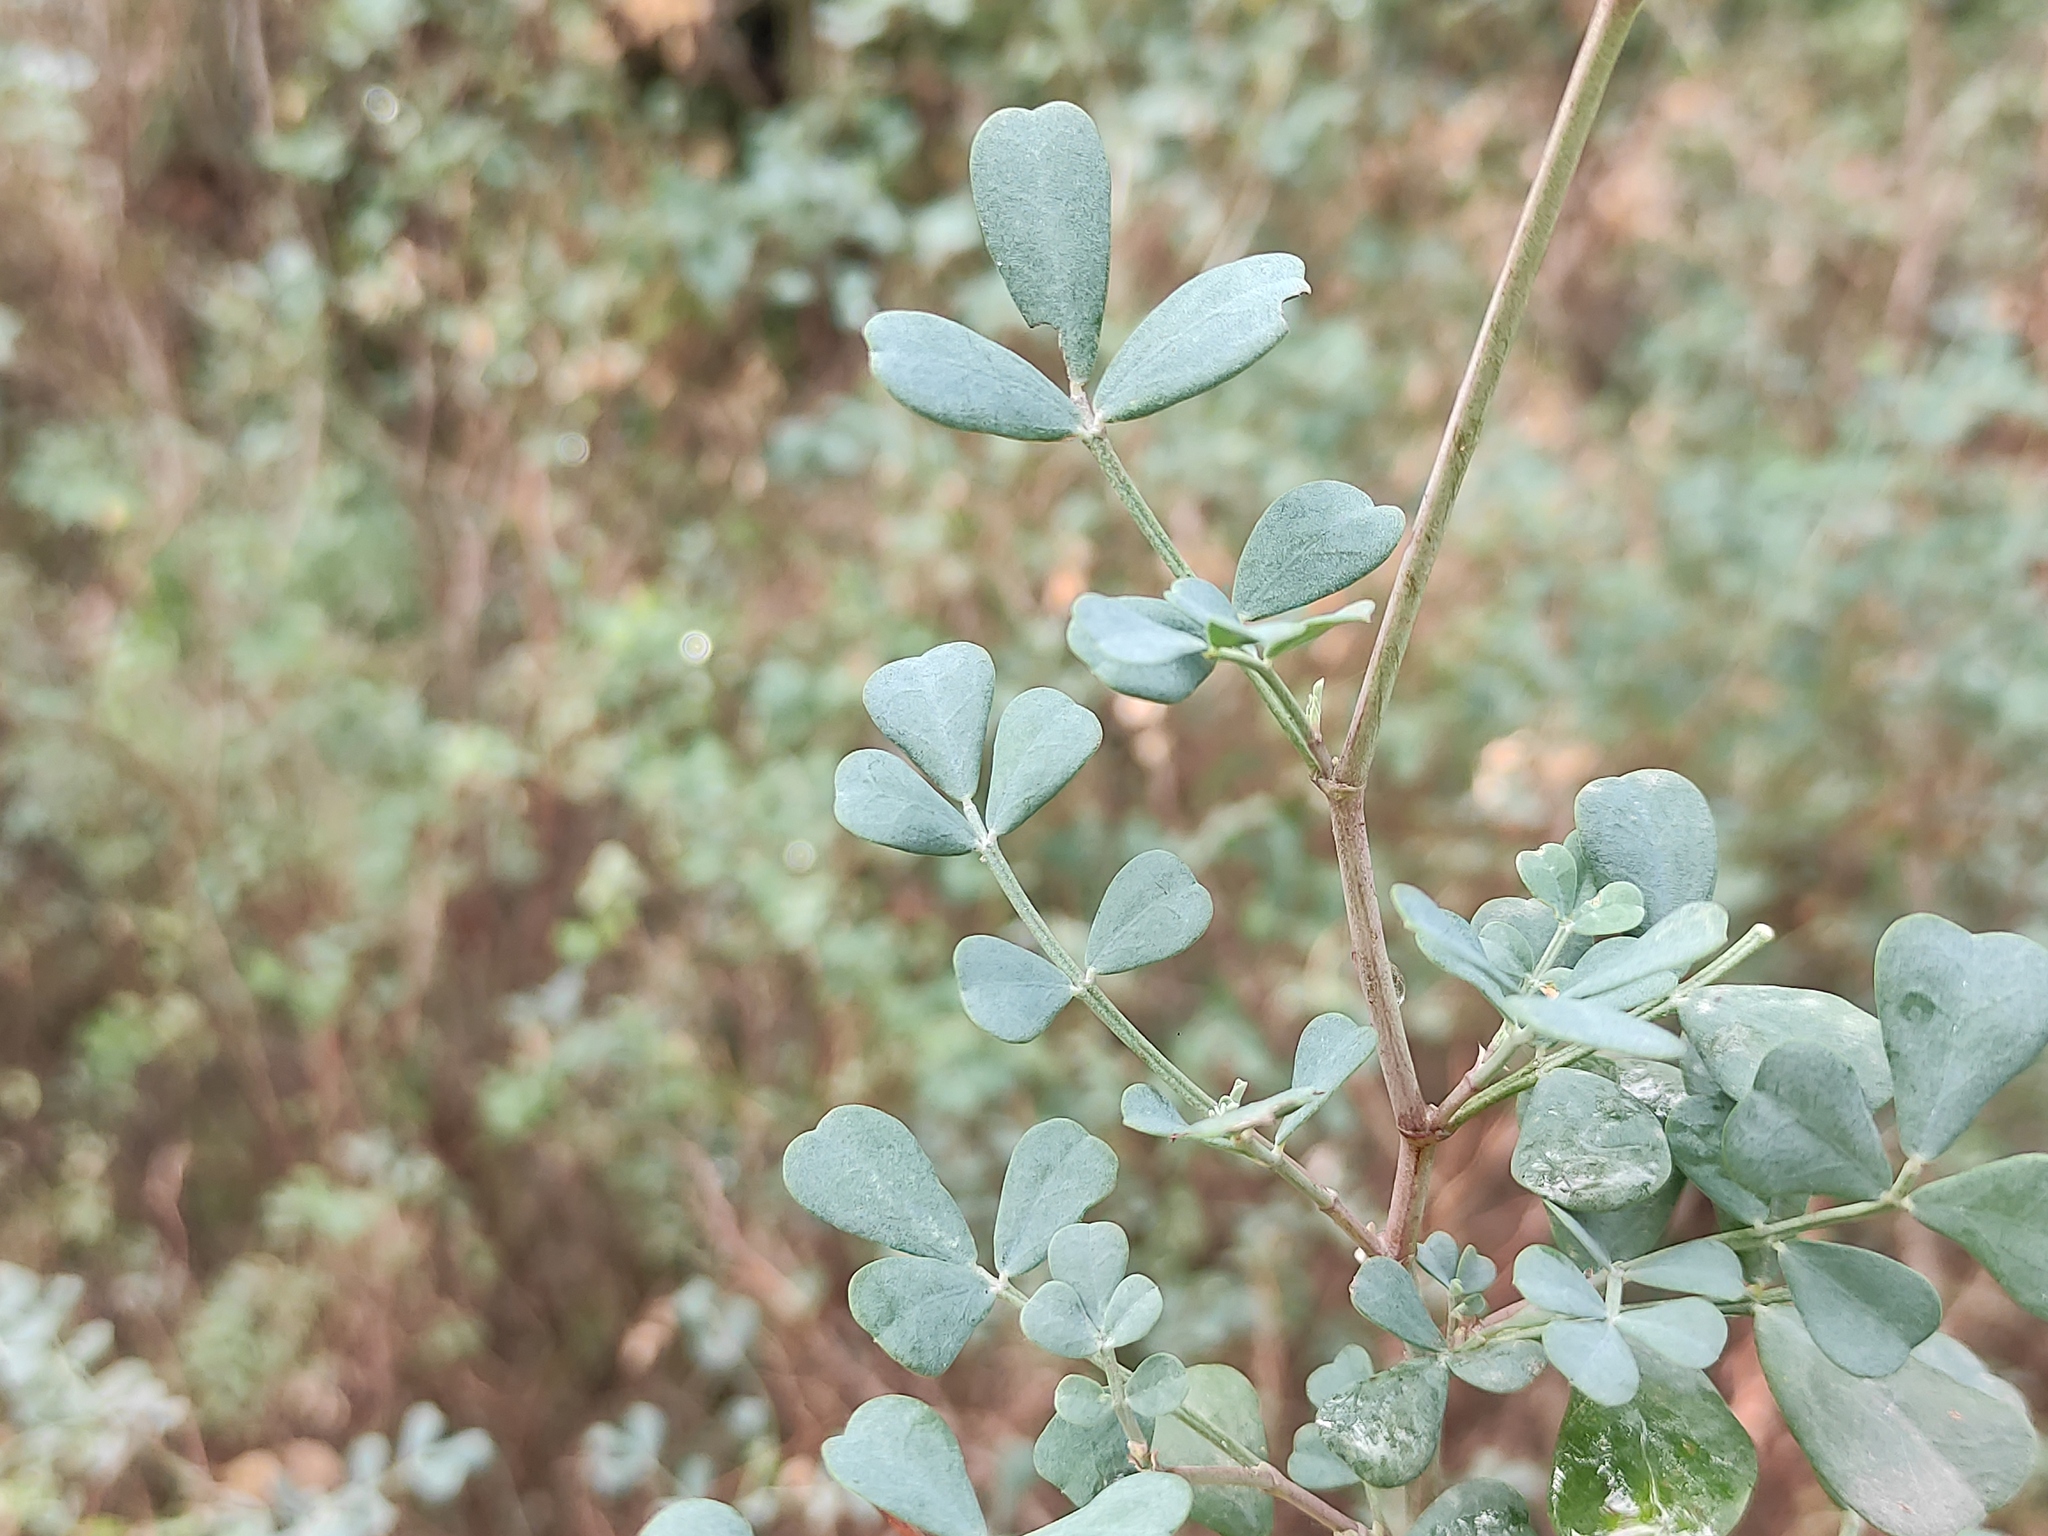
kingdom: Plantae
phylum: Tracheophyta
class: Magnoliopsida
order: Fabales
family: Fabaceae
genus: Coronilla
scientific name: Coronilla valentina
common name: Shrubby scorpion-vetch
